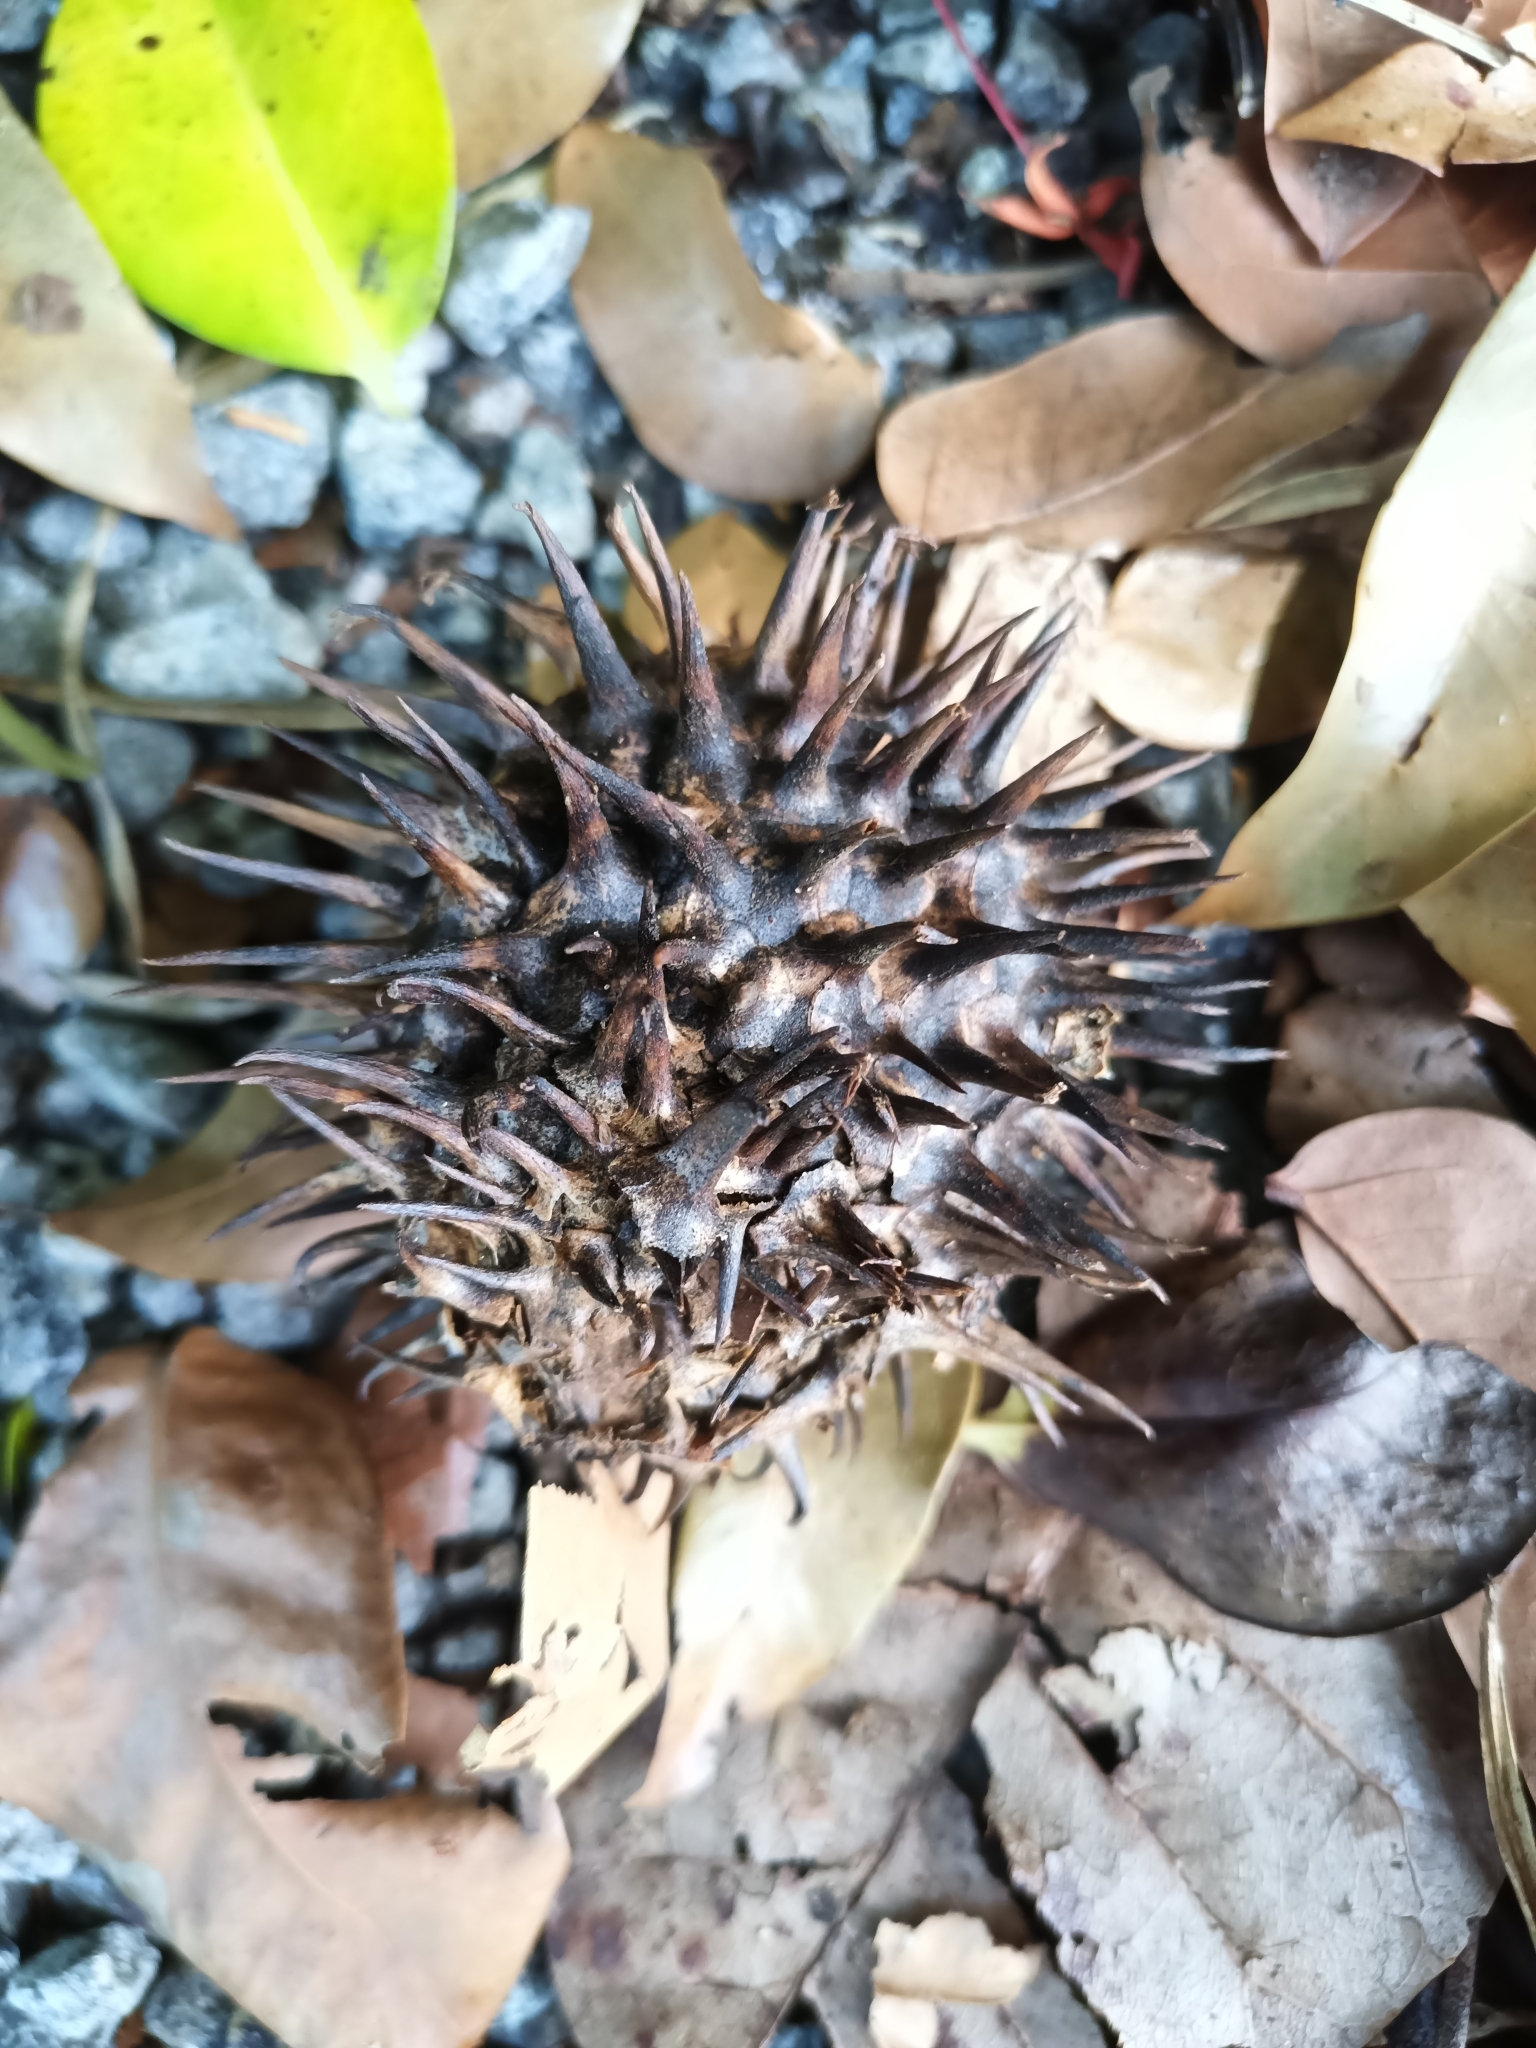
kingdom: Plantae
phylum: Tracheophyta
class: Magnoliopsida
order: Gentianales
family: Apocynaceae
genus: Allamanda
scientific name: Allamanda cathartica
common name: Golden trumpet
